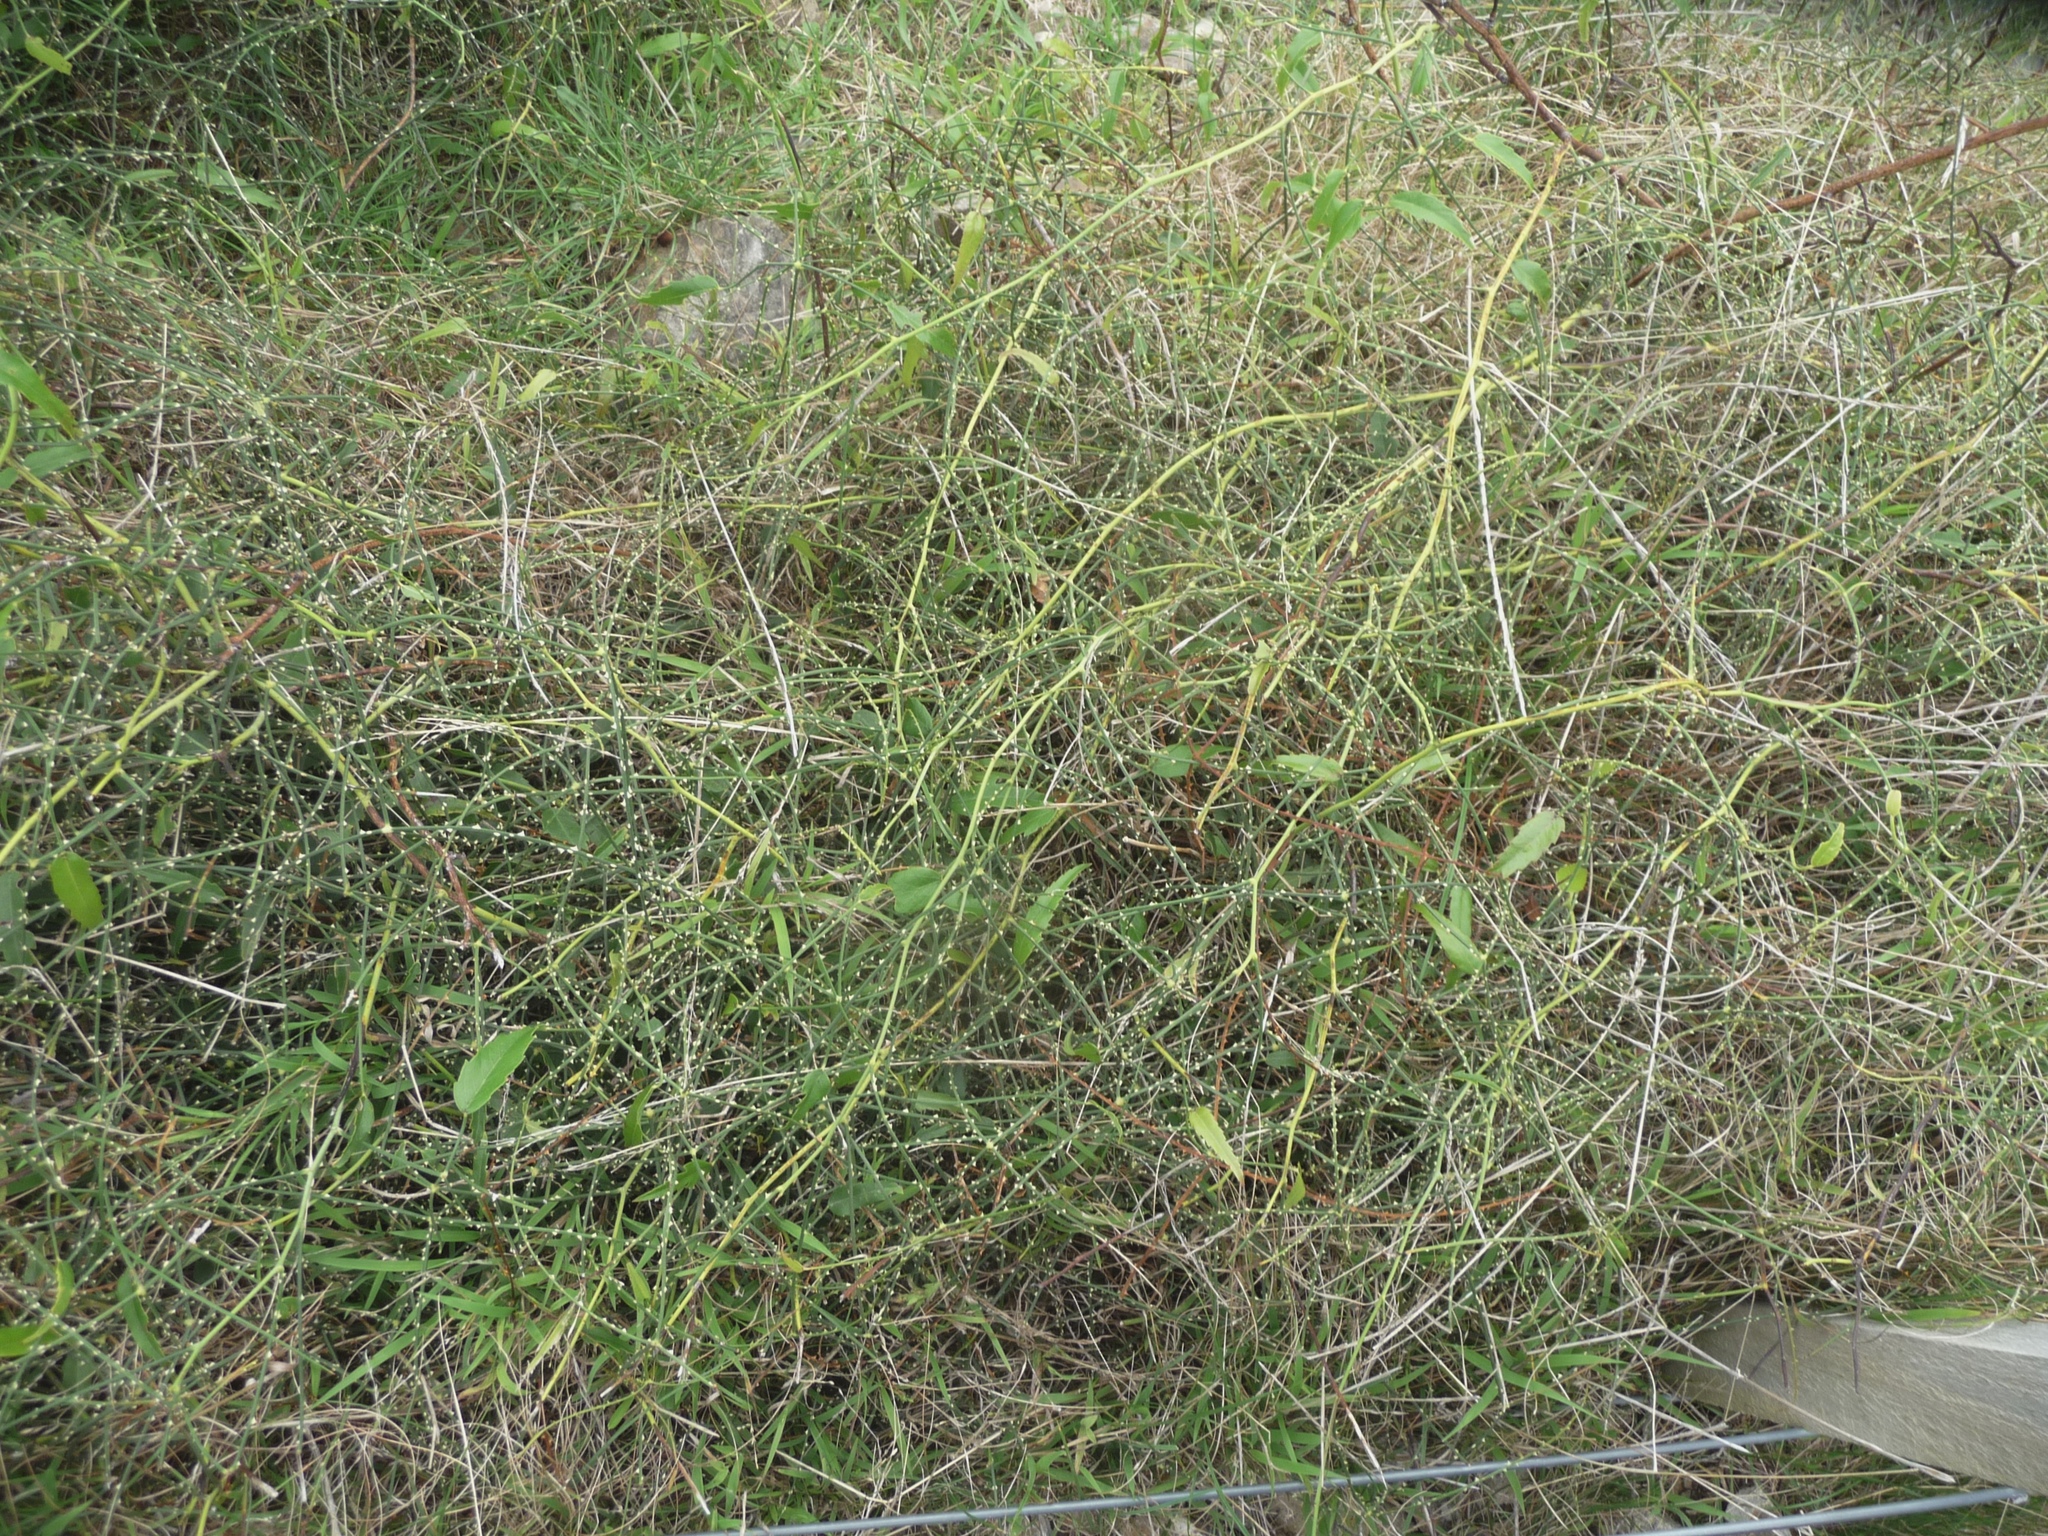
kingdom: Plantae
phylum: Tracheophyta
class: Magnoliopsida
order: Rosales
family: Rosaceae
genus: Rubus
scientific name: Rubus squarrosus
